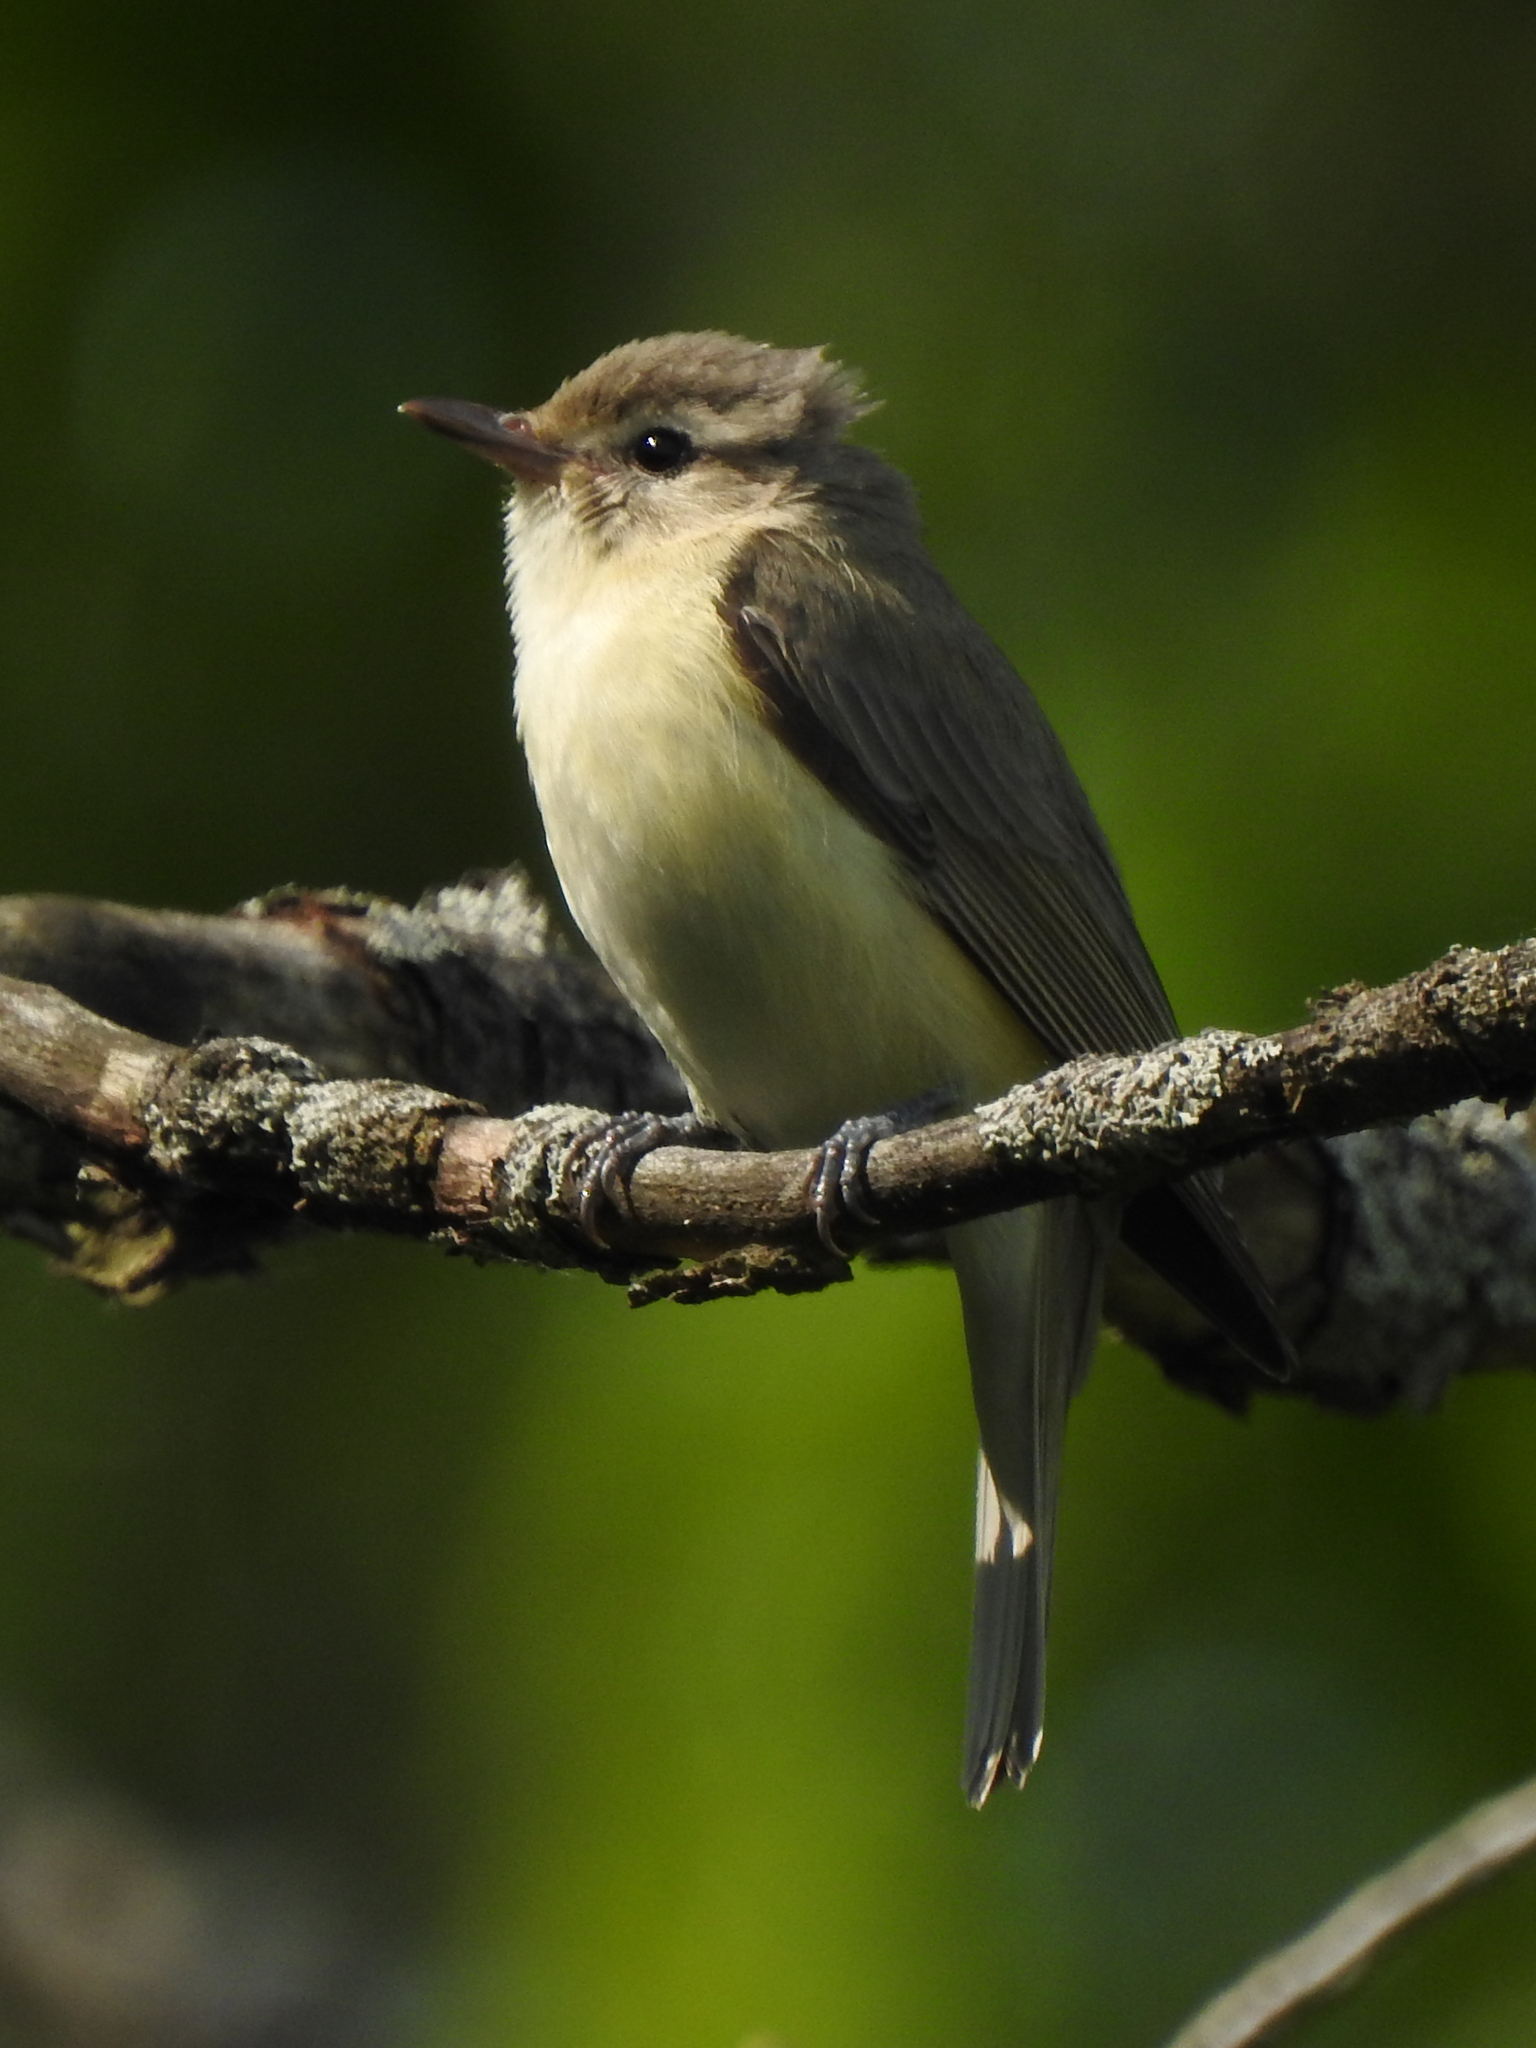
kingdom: Animalia
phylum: Chordata
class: Aves
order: Passeriformes
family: Vireonidae
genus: Vireo
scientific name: Vireo gilvus
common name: Warbling vireo
